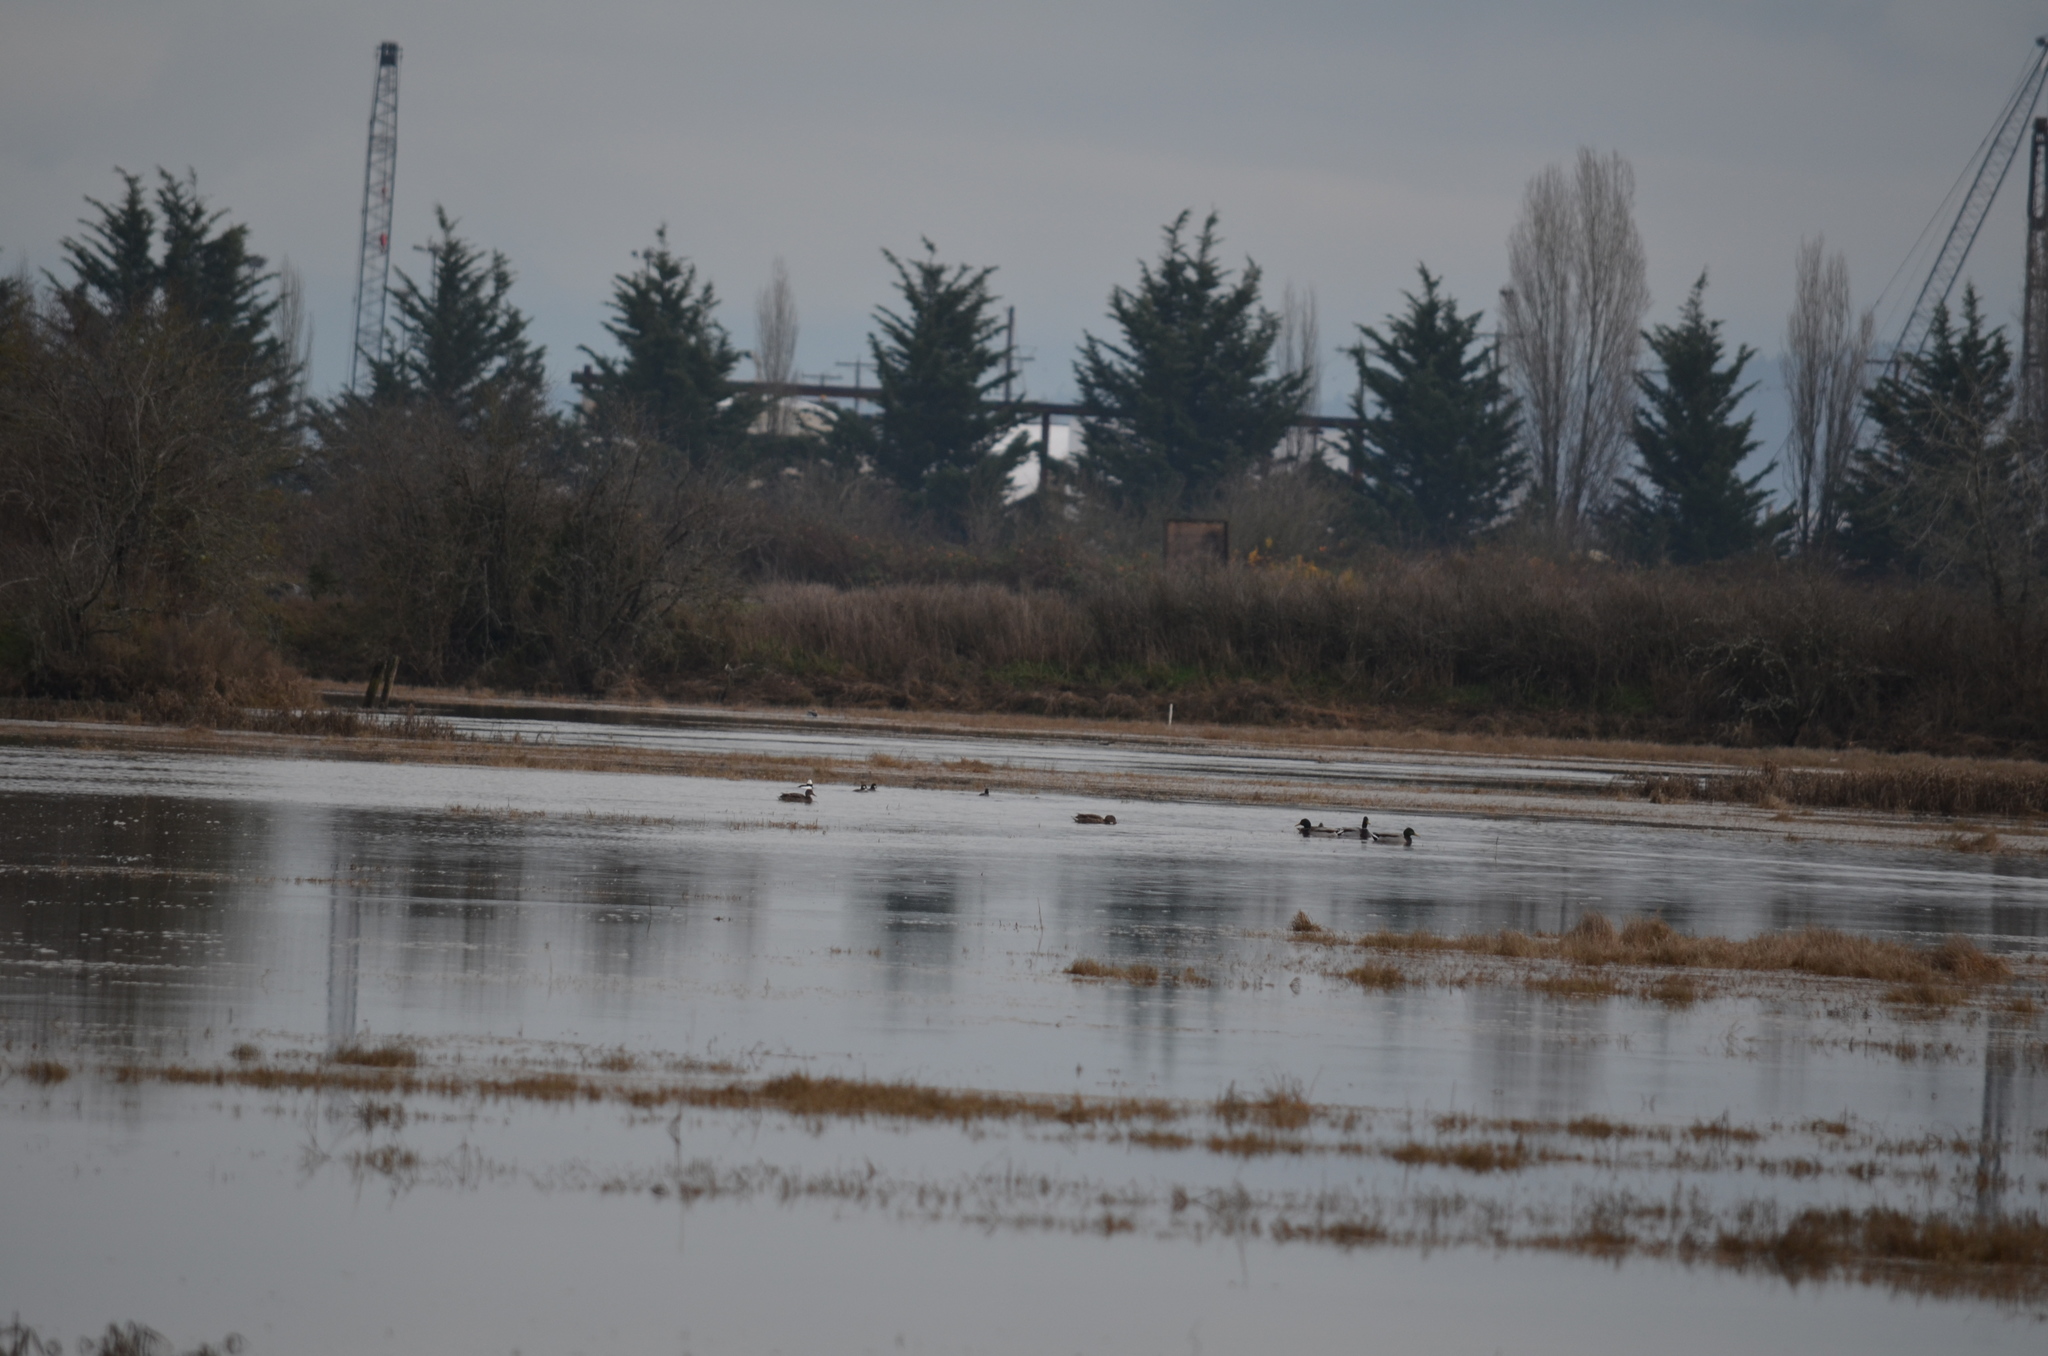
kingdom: Animalia
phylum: Chordata
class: Aves
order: Anseriformes
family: Anatidae
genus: Bucephala
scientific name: Bucephala albeola
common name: Bufflehead
